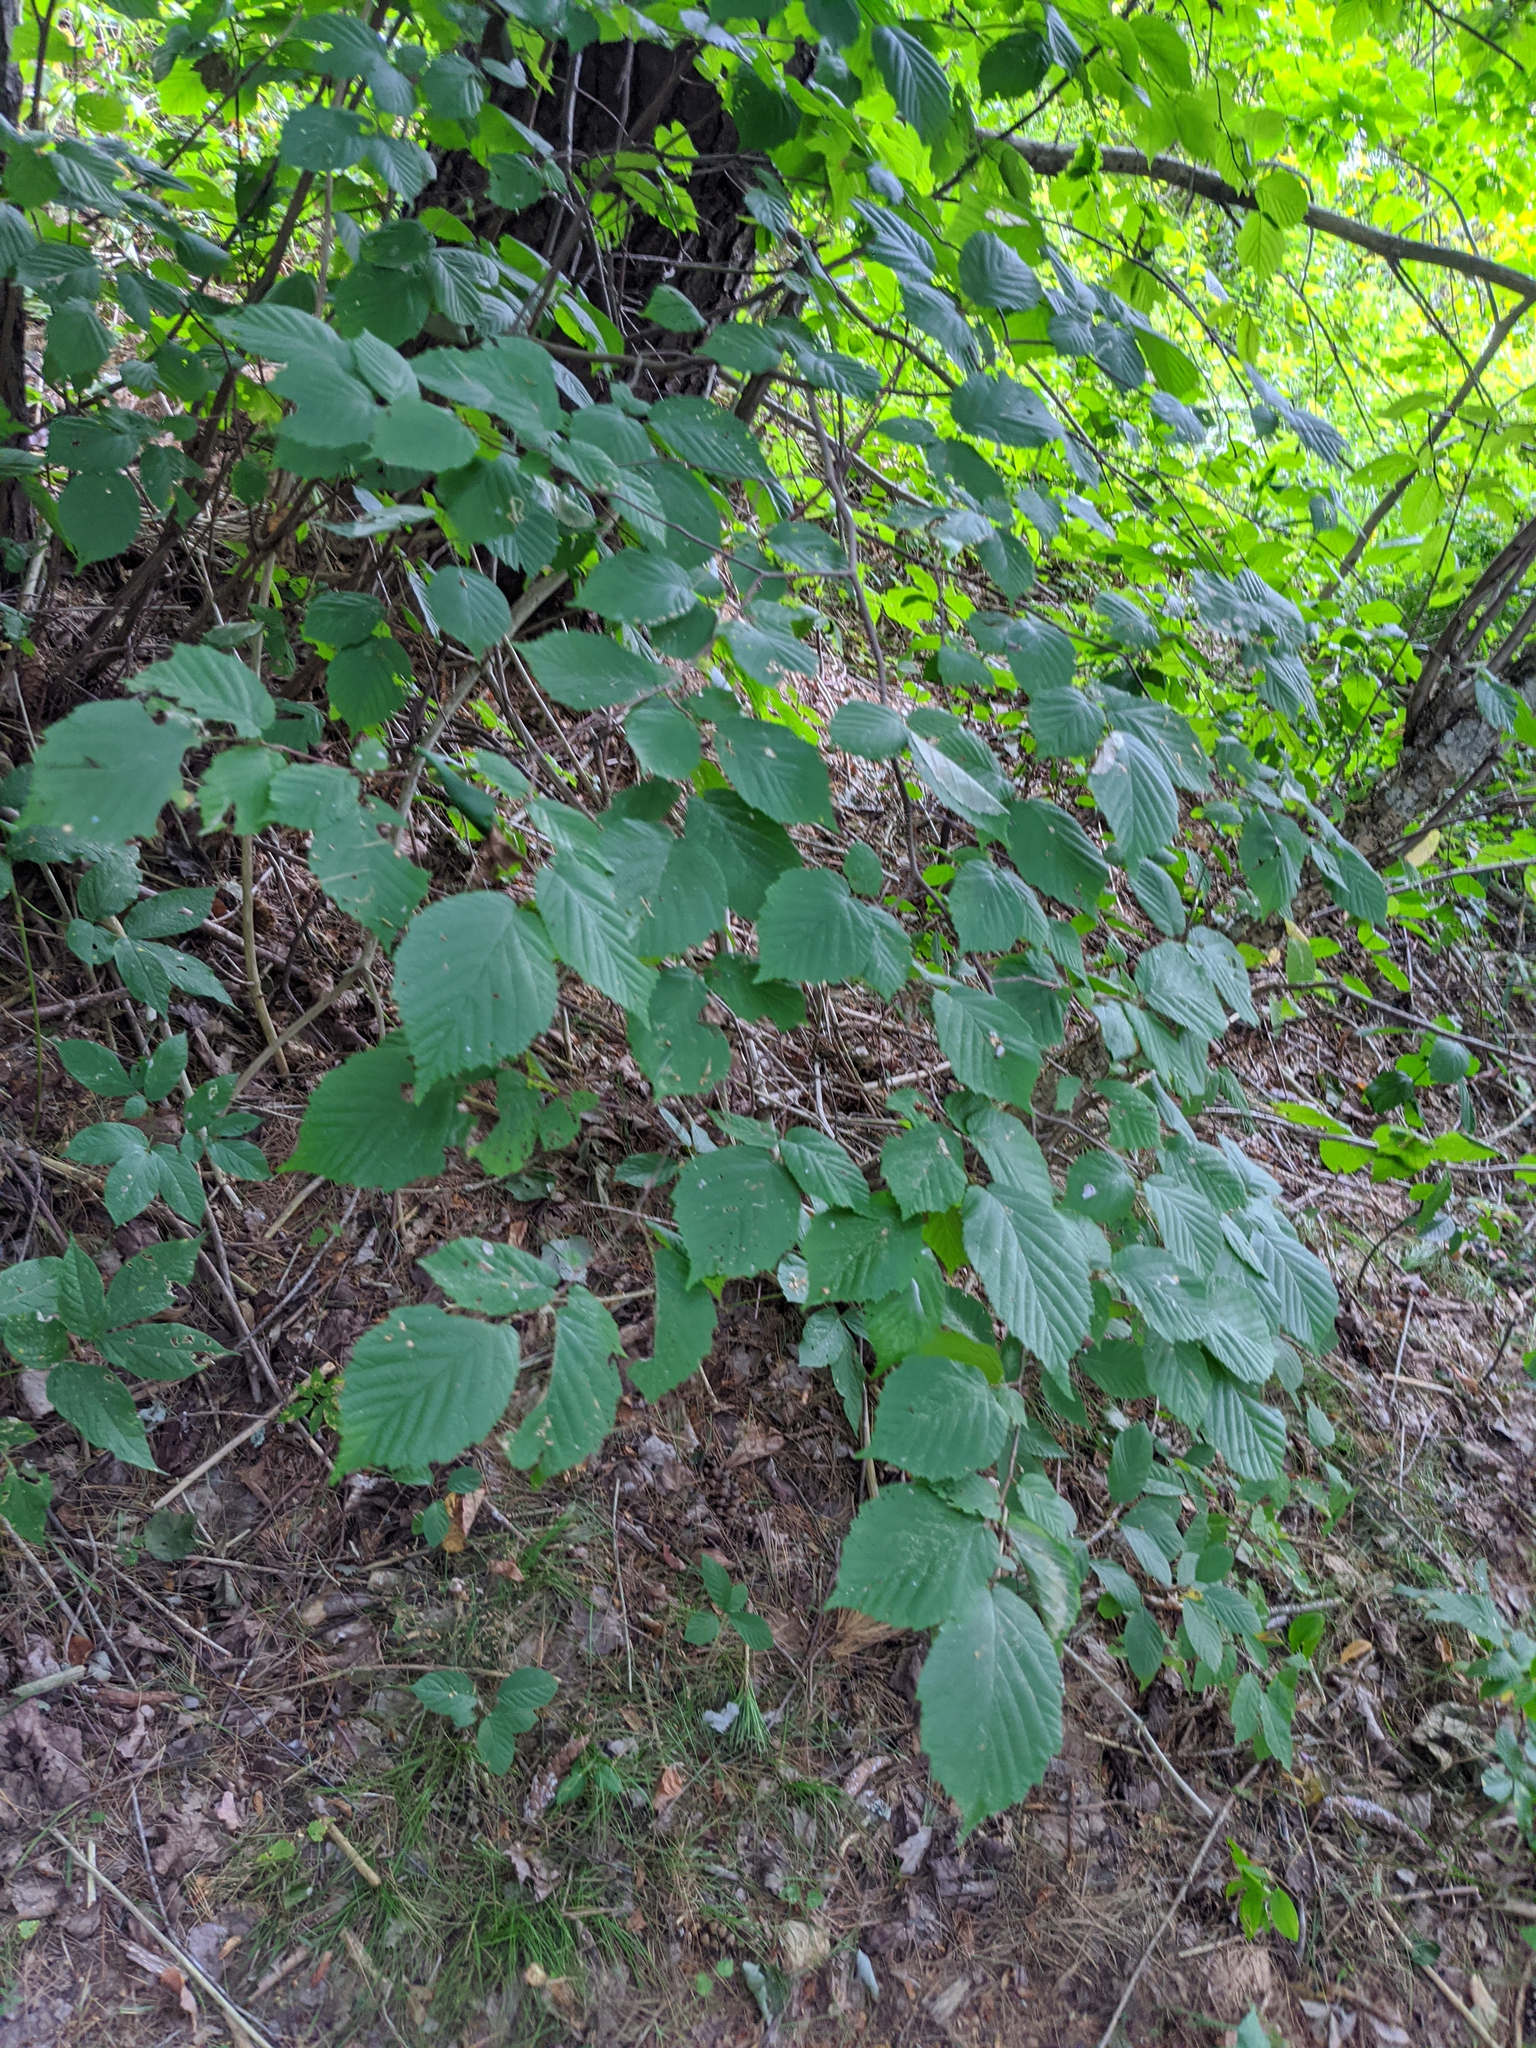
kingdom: Plantae
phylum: Tracheophyta
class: Magnoliopsida
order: Fagales
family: Betulaceae
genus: Corylus
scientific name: Corylus cornuta
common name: Beaked hazel
